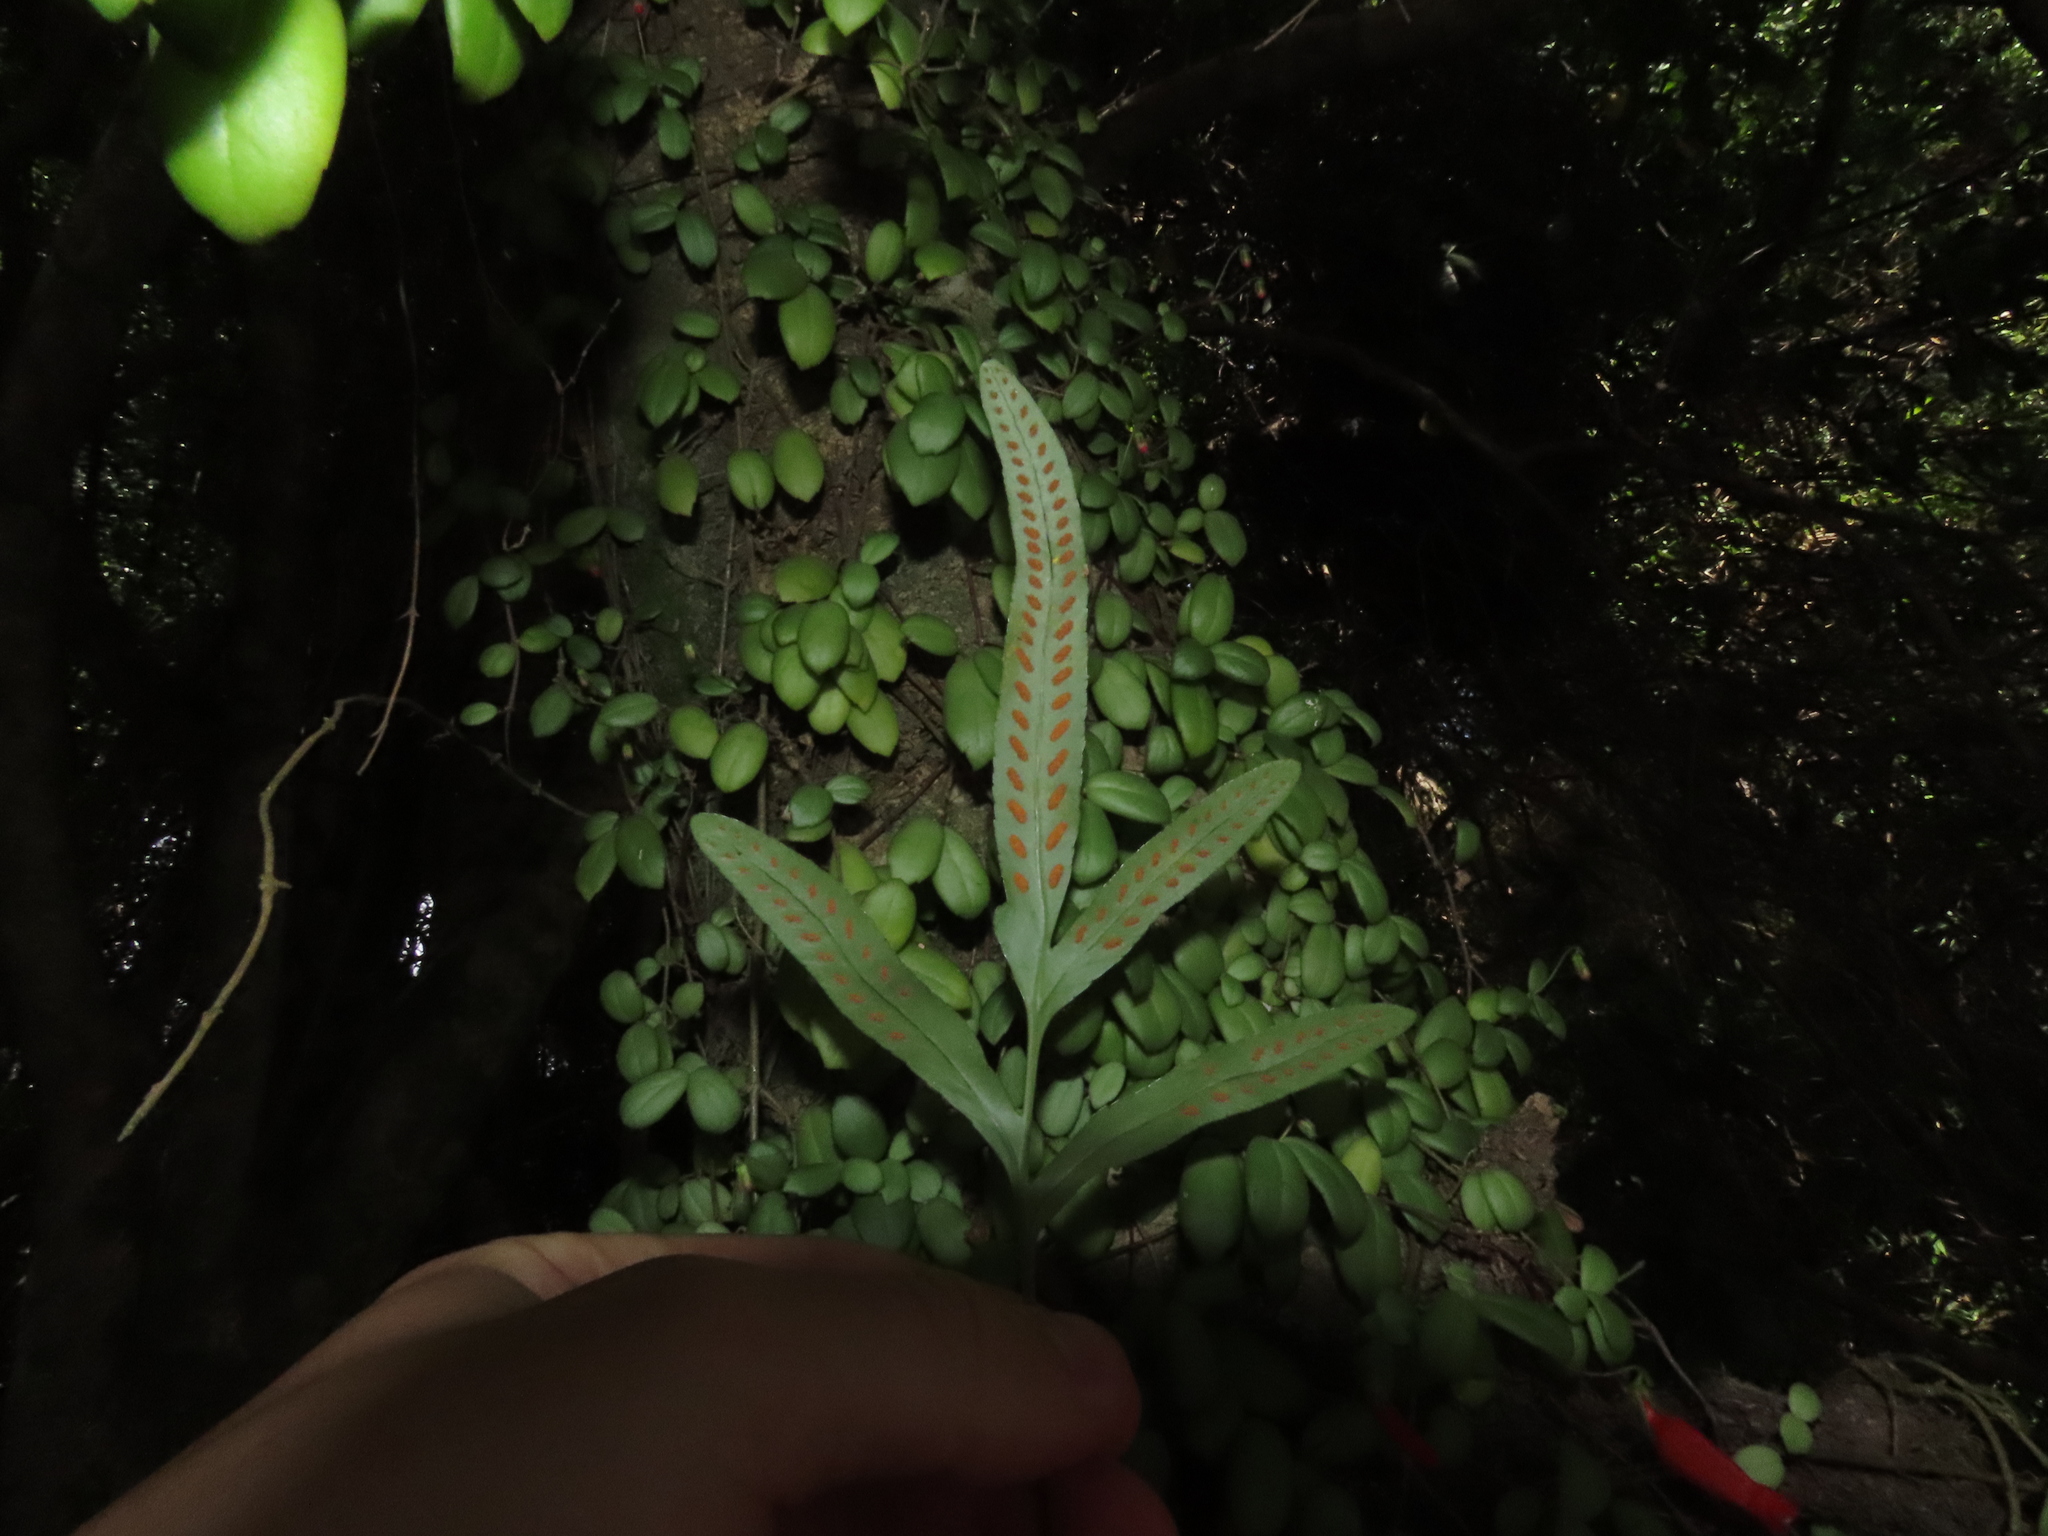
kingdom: Plantae
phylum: Tracheophyta
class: Polypodiopsida
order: Polypodiales
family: Polypodiaceae
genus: Synammia
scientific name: Synammia feuillei
